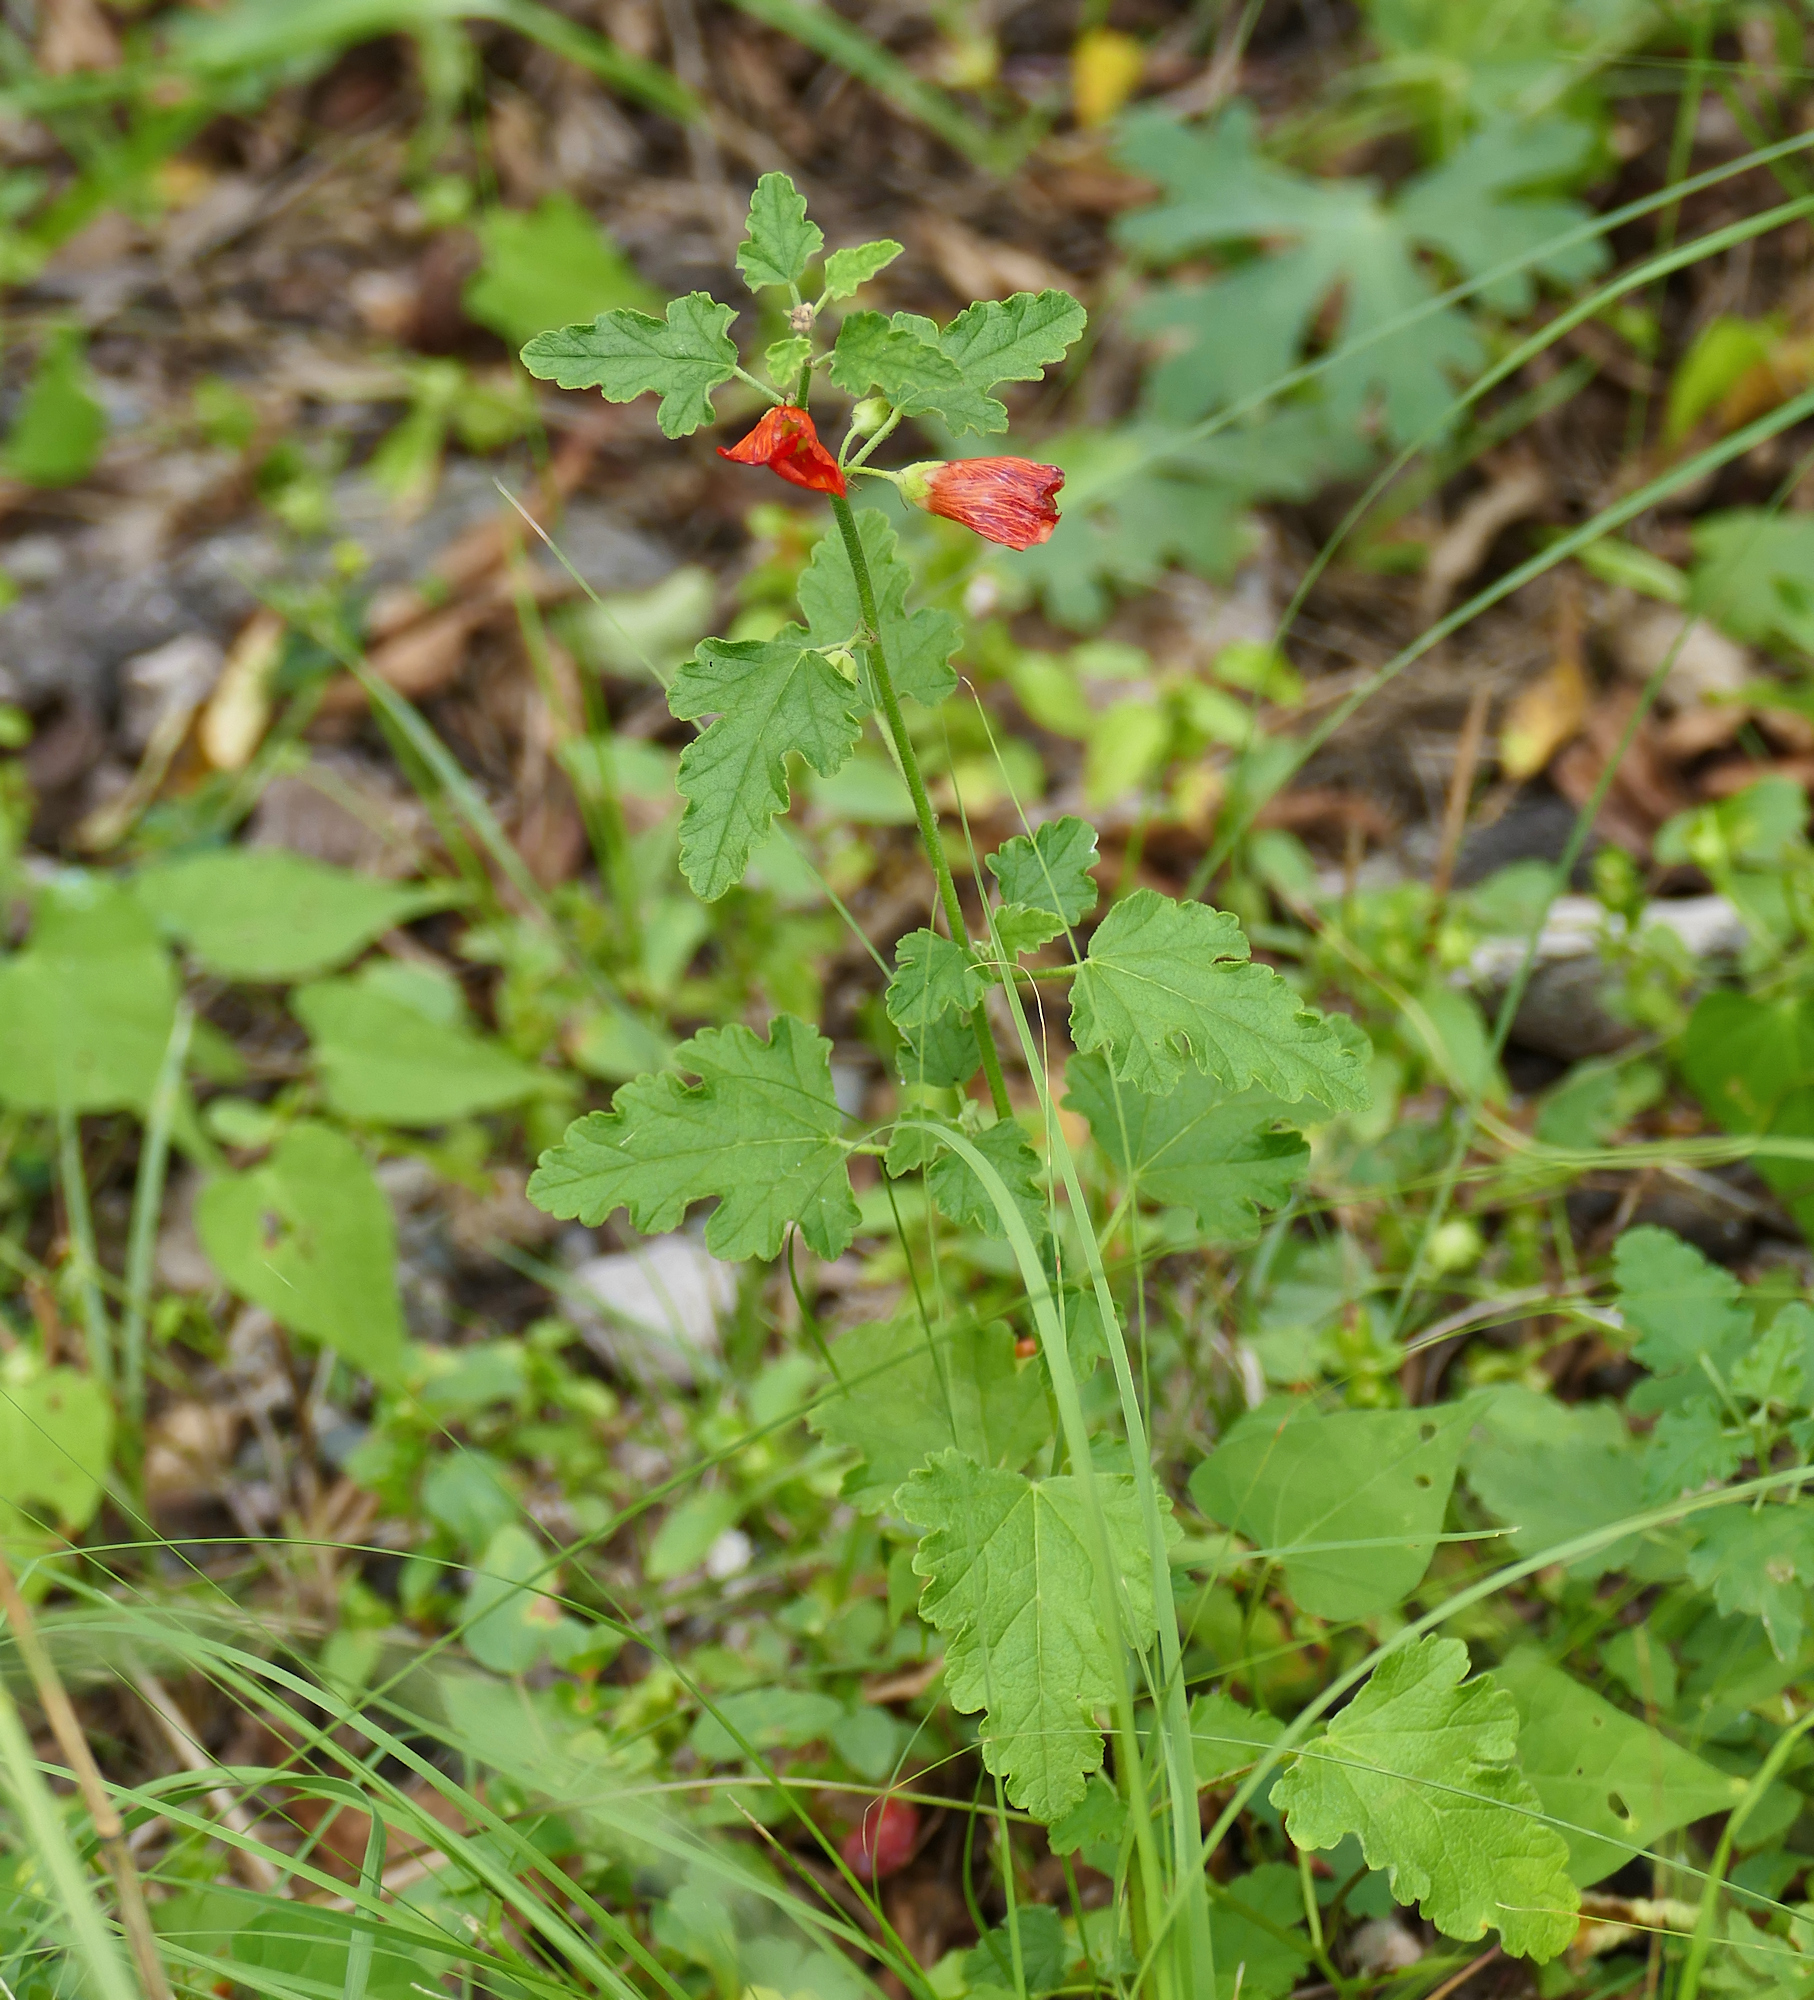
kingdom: Plantae
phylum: Tracheophyta
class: Magnoliopsida
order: Malvales
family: Malvaceae
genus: Sphaeralcea
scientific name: Sphaeralcea fendleri
